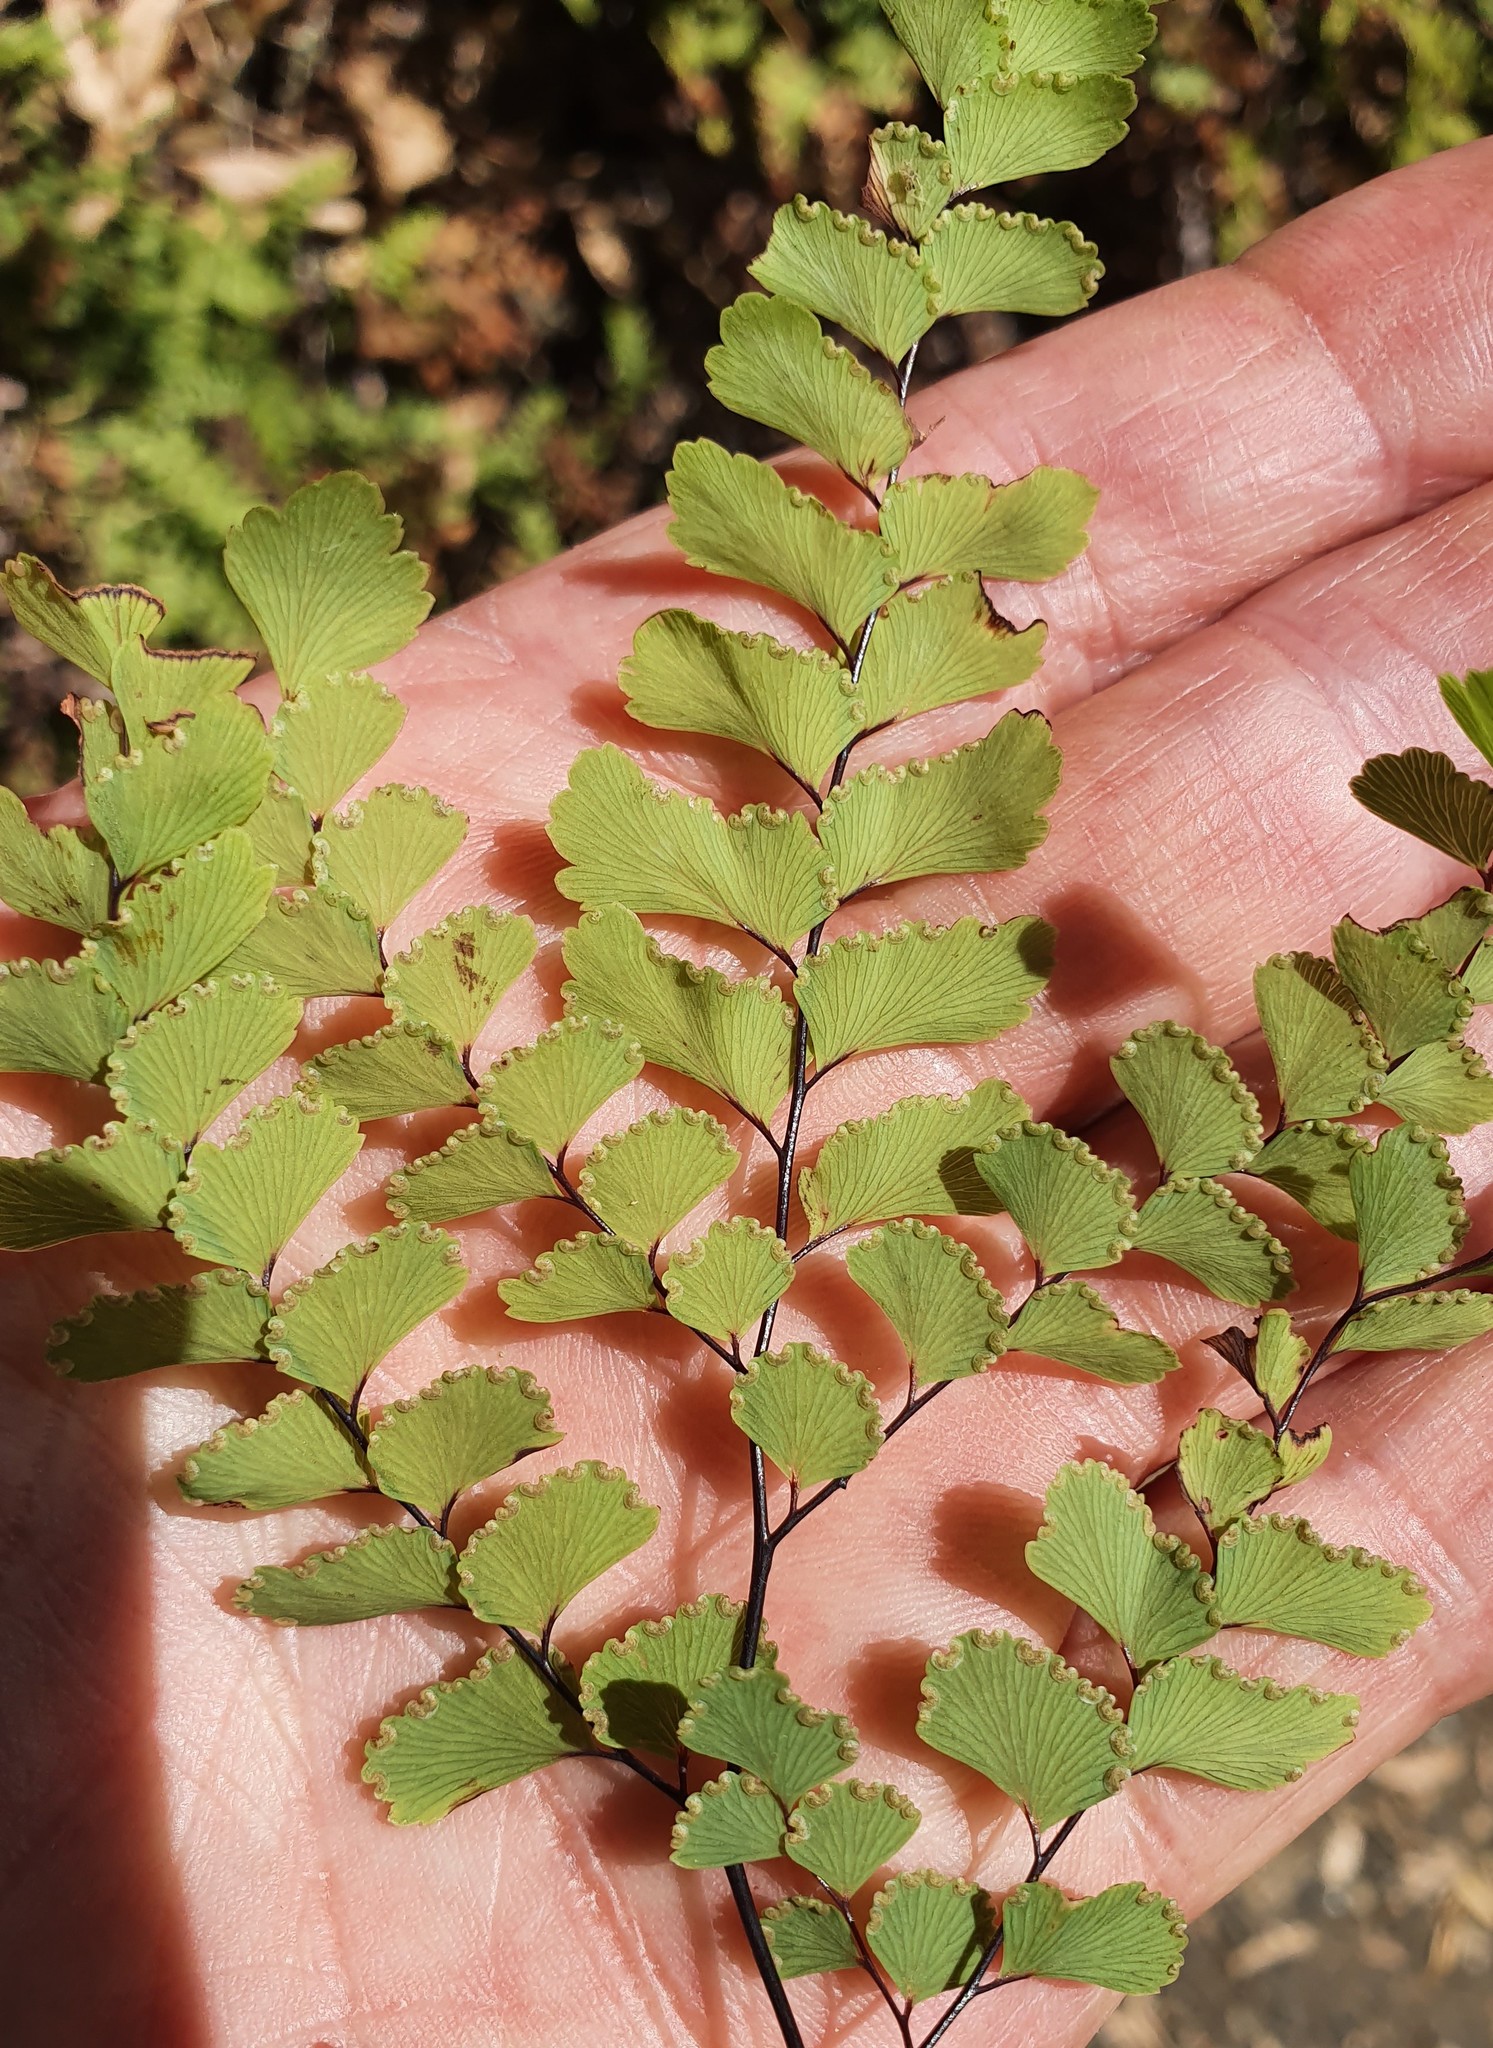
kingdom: Plantae
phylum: Tracheophyta
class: Polypodiopsida
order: Polypodiales
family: Pteridaceae
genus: Adiantum
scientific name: Adiantum cunninghamii
